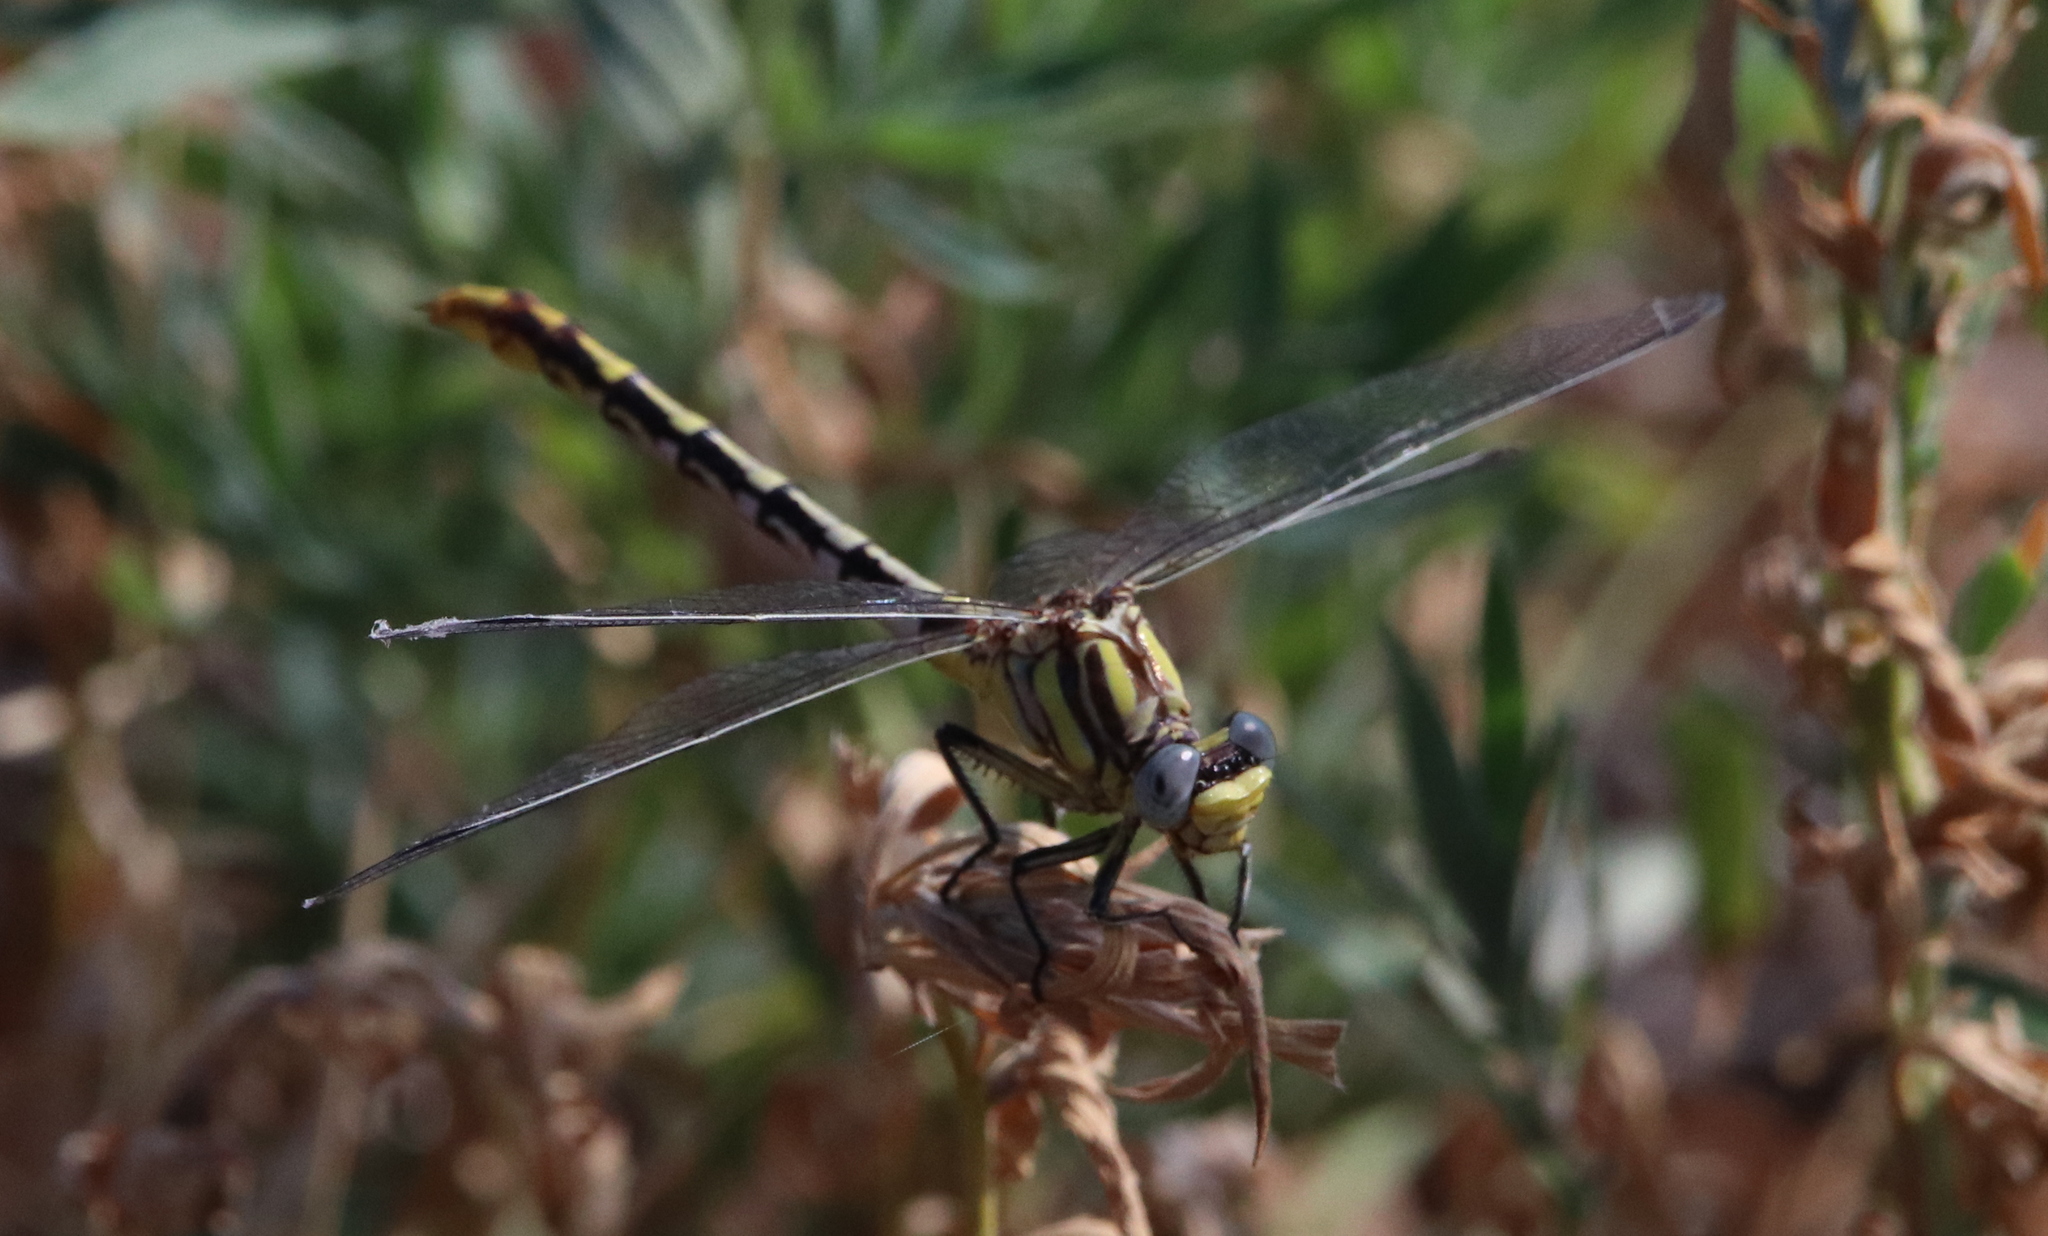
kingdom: Animalia
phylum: Arthropoda
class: Insecta
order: Odonata
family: Gomphidae
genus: Phanogomphus
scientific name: Phanogomphus militaris
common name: Sulphur-tipped clubtail
